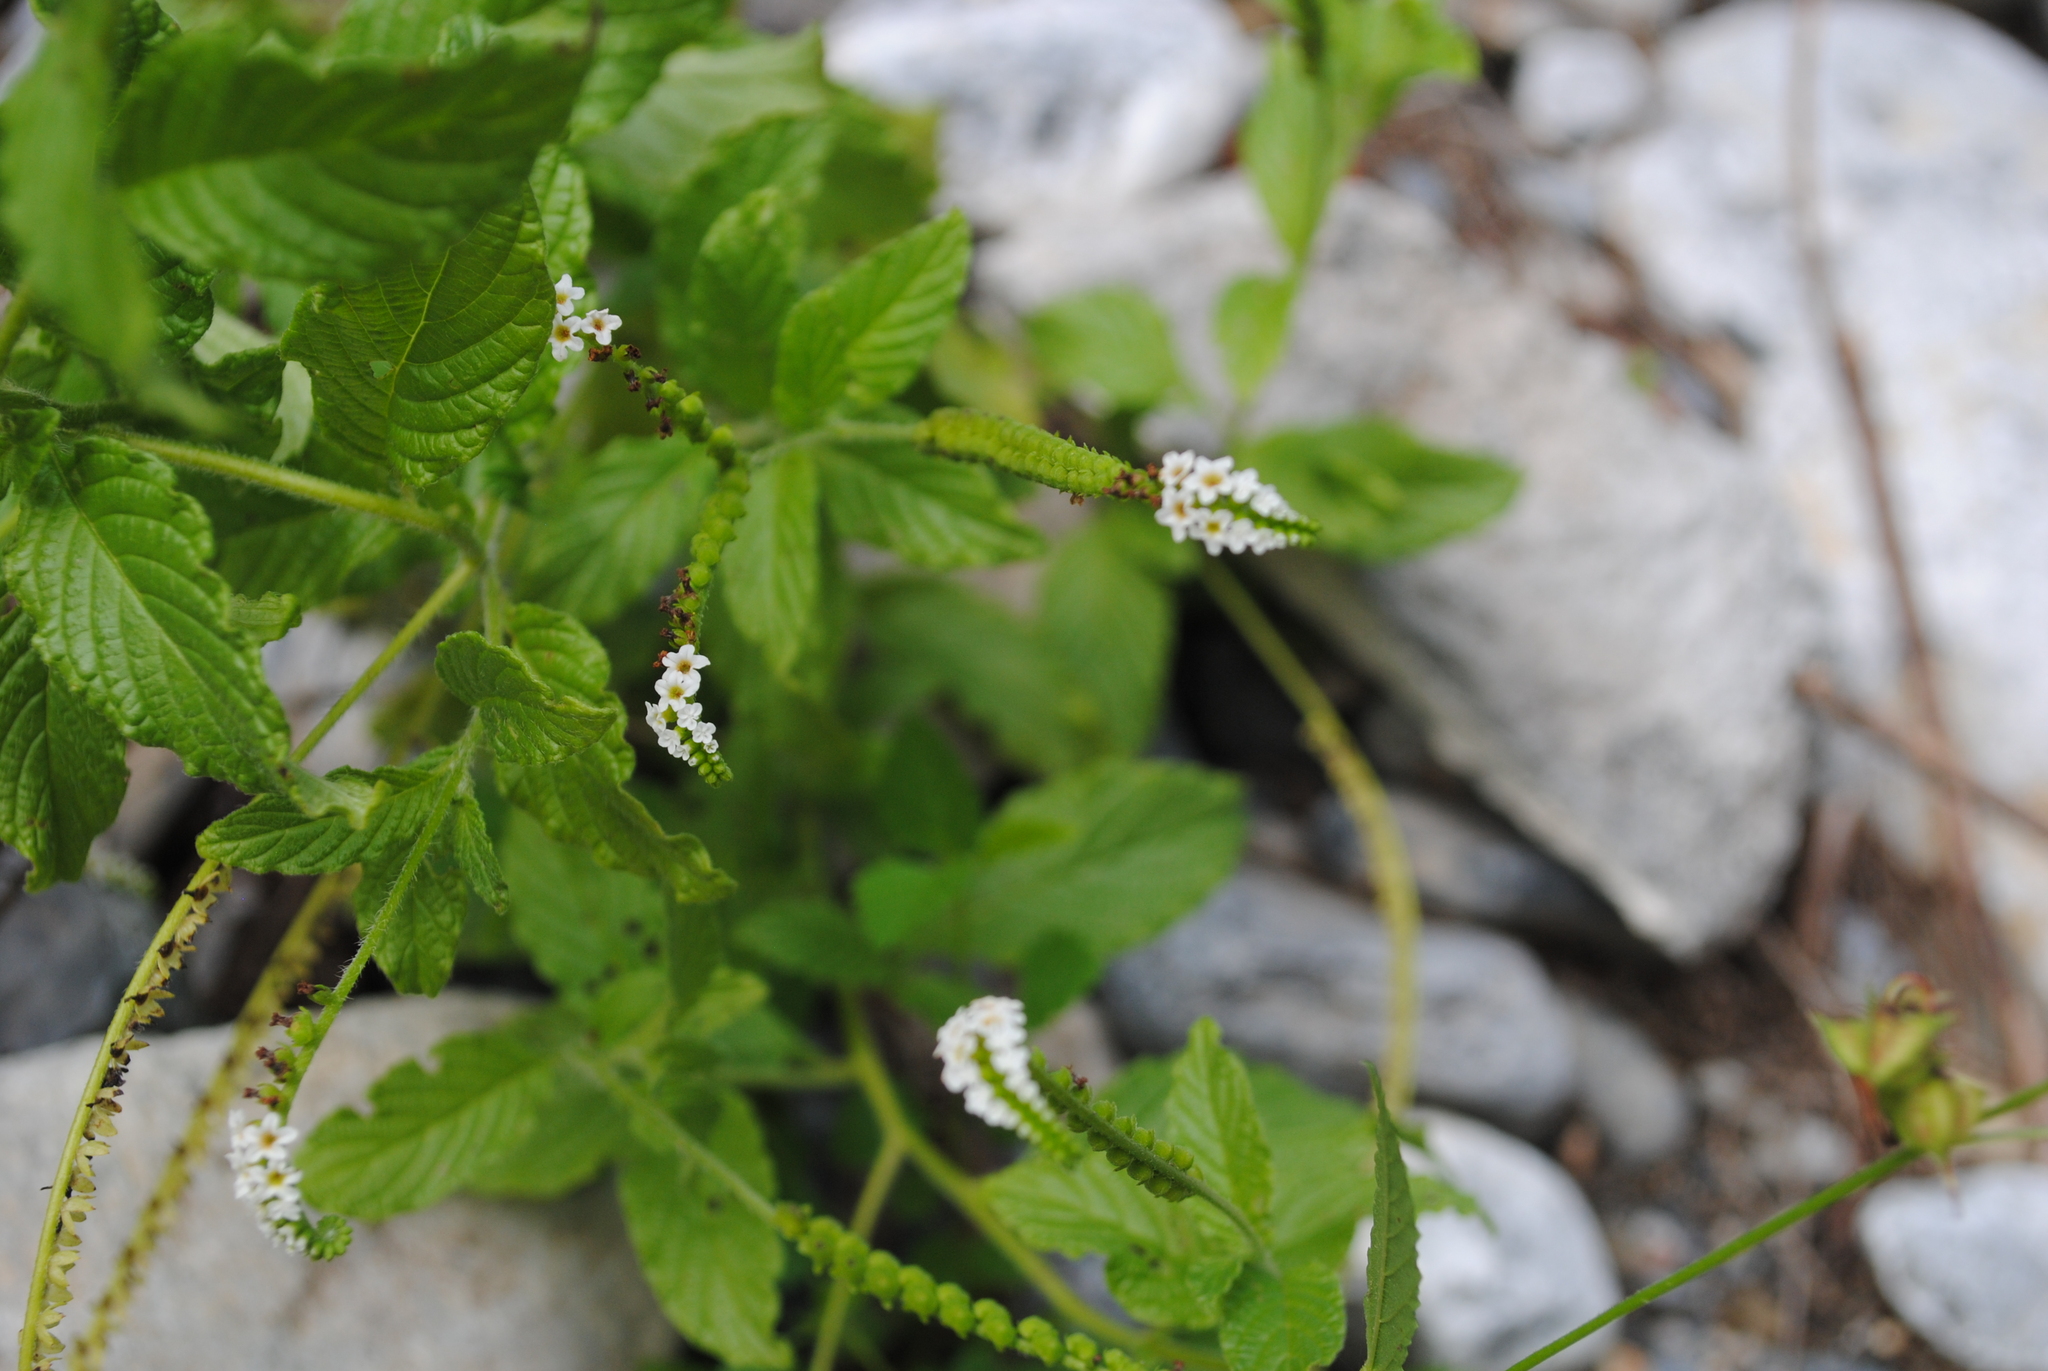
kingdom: Plantae
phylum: Tracheophyta
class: Magnoliopsida
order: Boraginales
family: Heliotropiaceae
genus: Heliotropium
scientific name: Heliotropium angiospermum
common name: Eye bright
